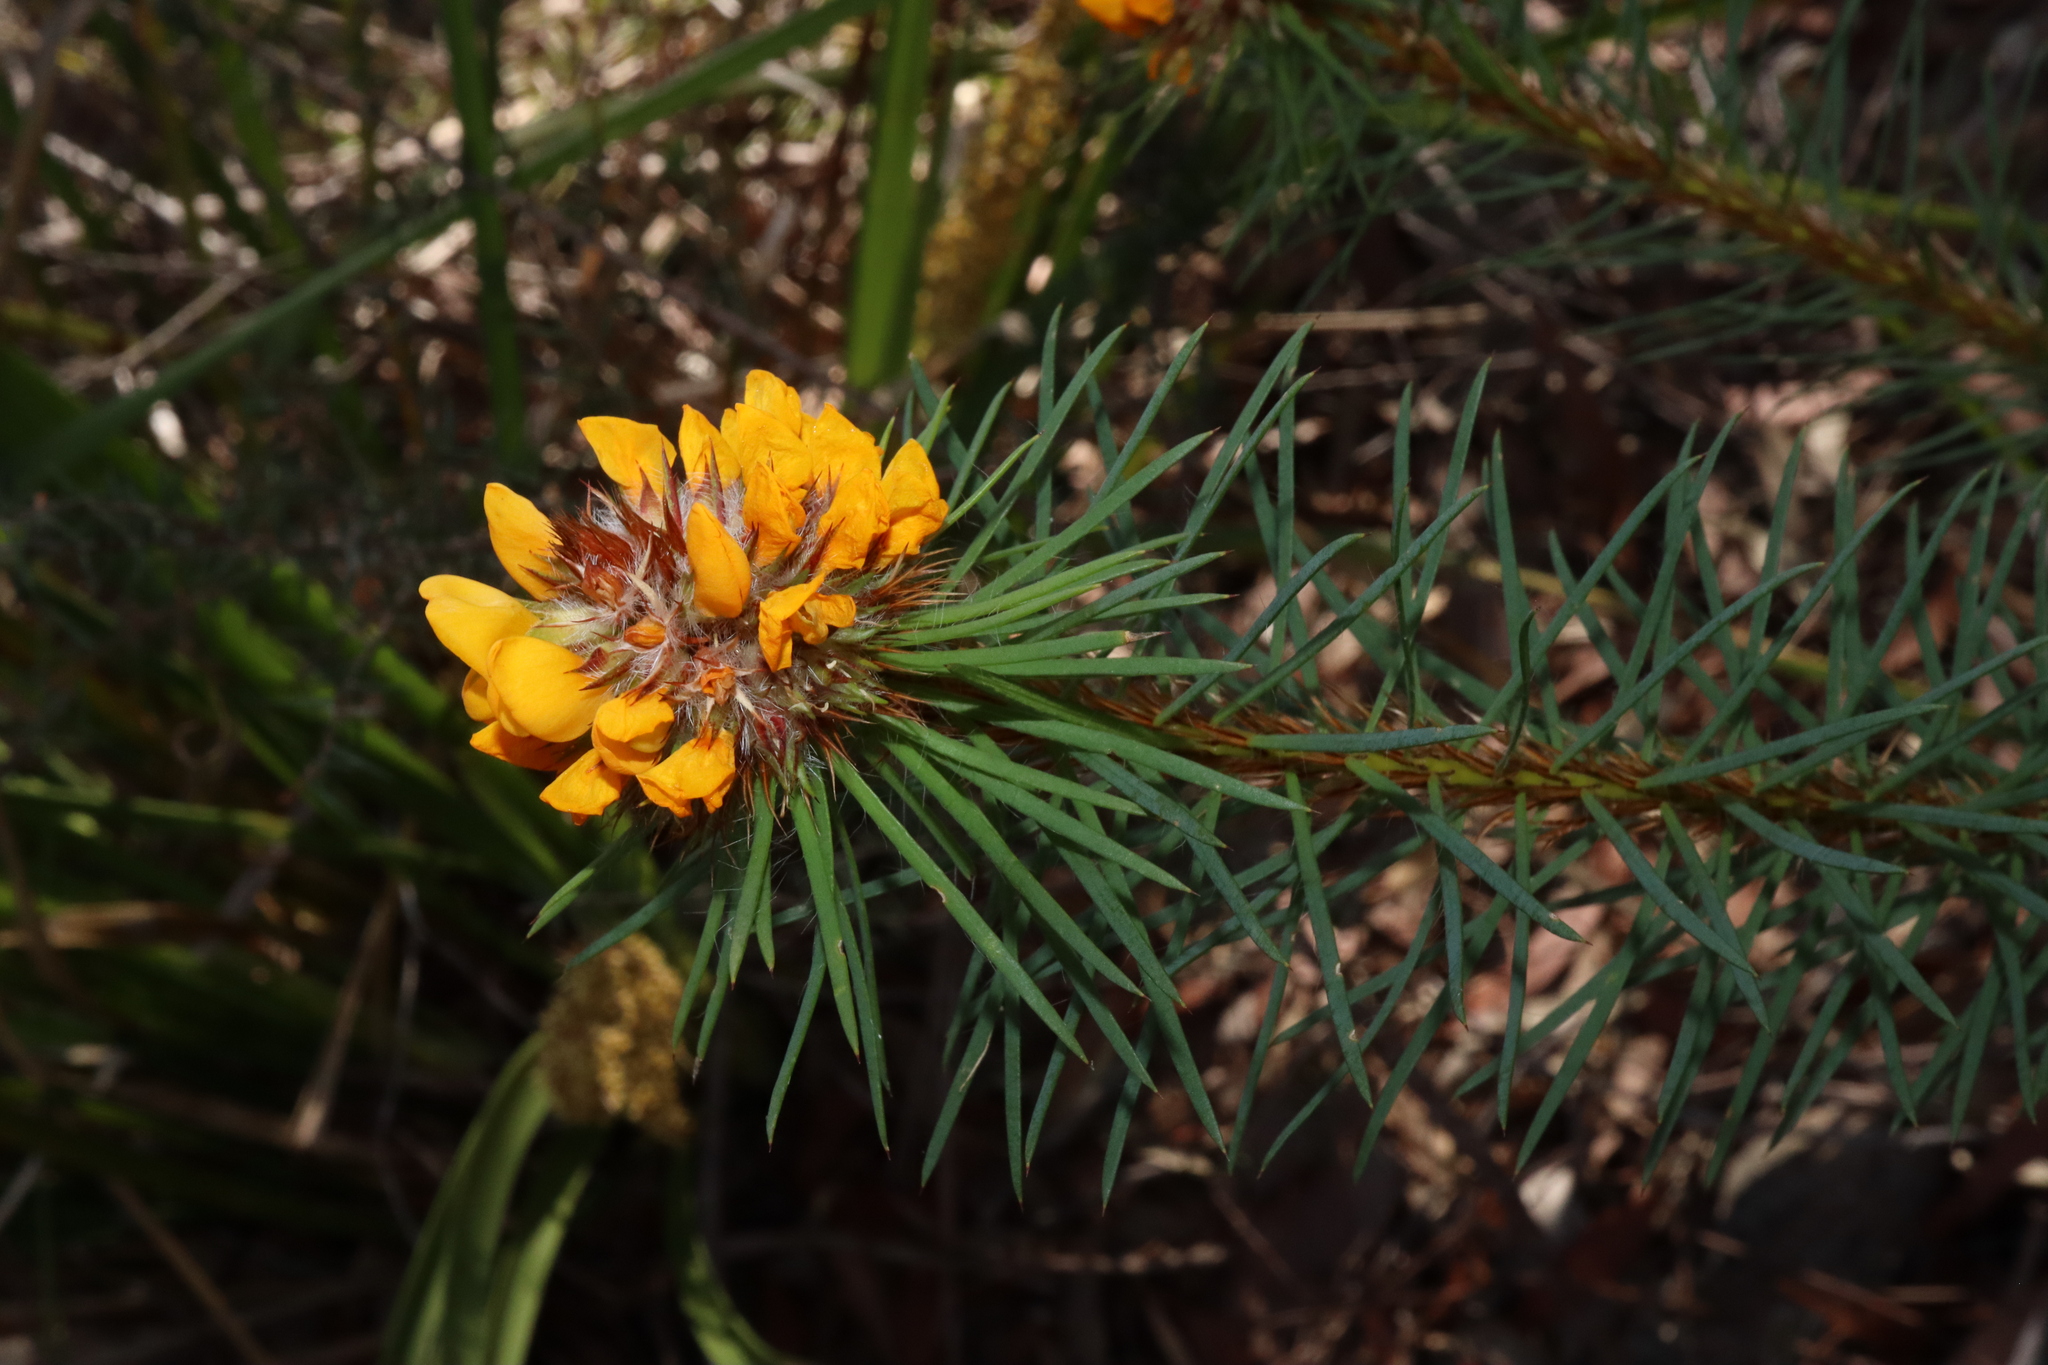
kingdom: Plantae
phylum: Tracheophyta
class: Magnoliopsida
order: Fabales
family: Fabaceae
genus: Pultenaea
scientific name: Pultenaea stipularis
